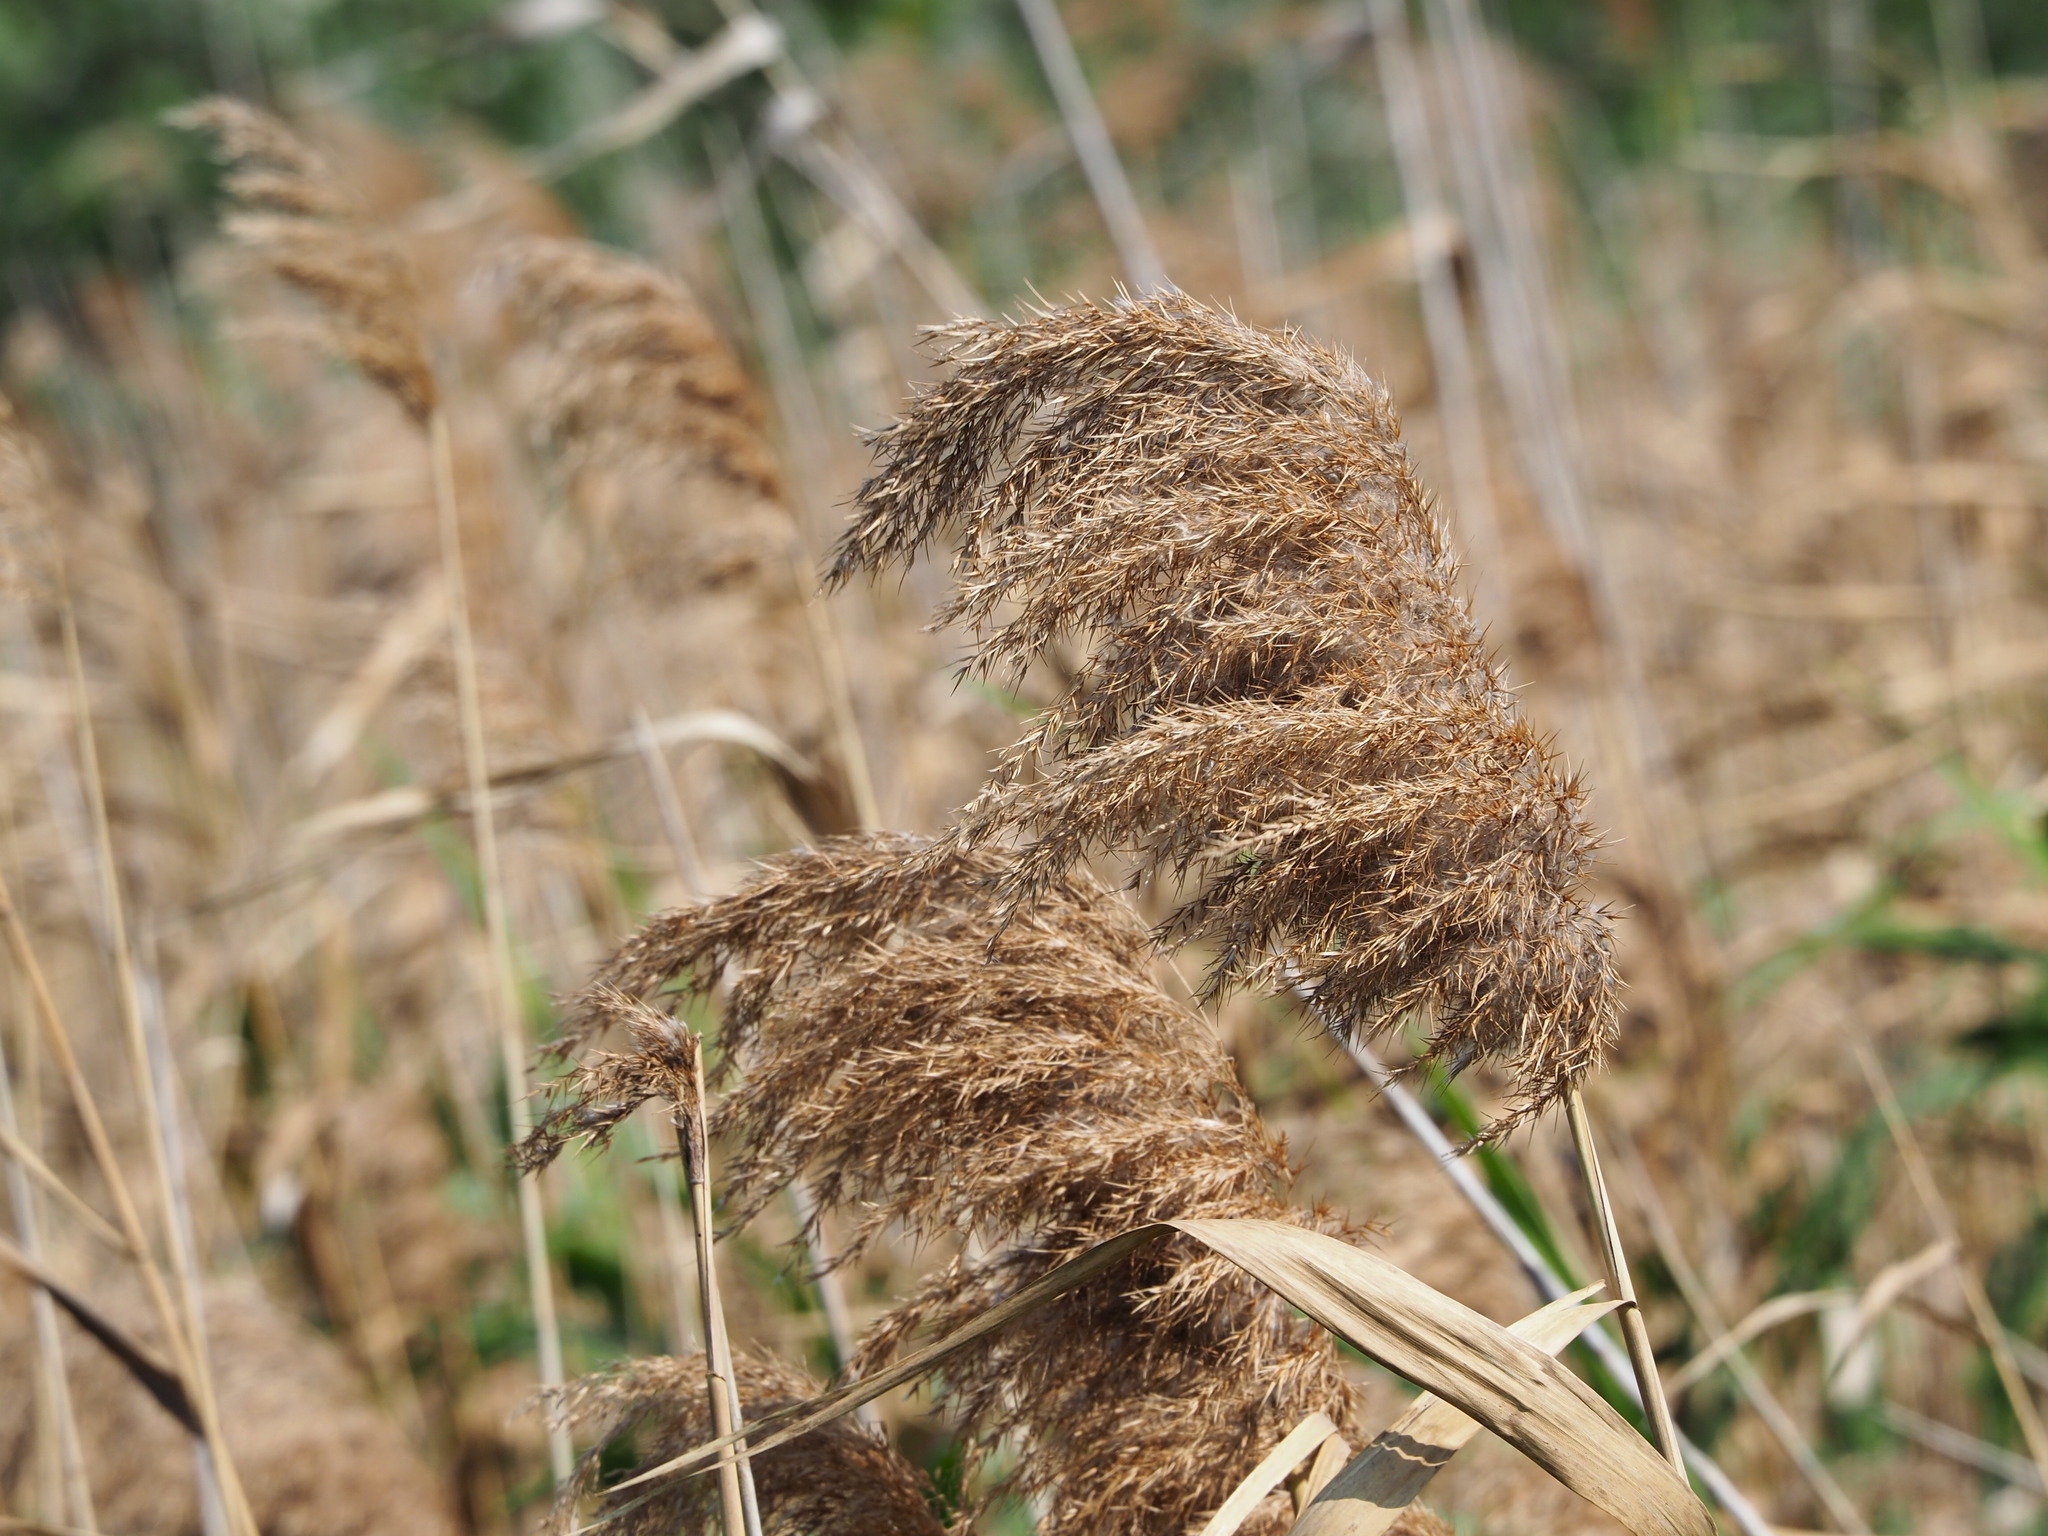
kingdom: Plantae
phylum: Tracheophyta
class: Liliopsida
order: Poales
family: Poaceae
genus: Phragmites
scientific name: Phragmites australis
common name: Common reed
